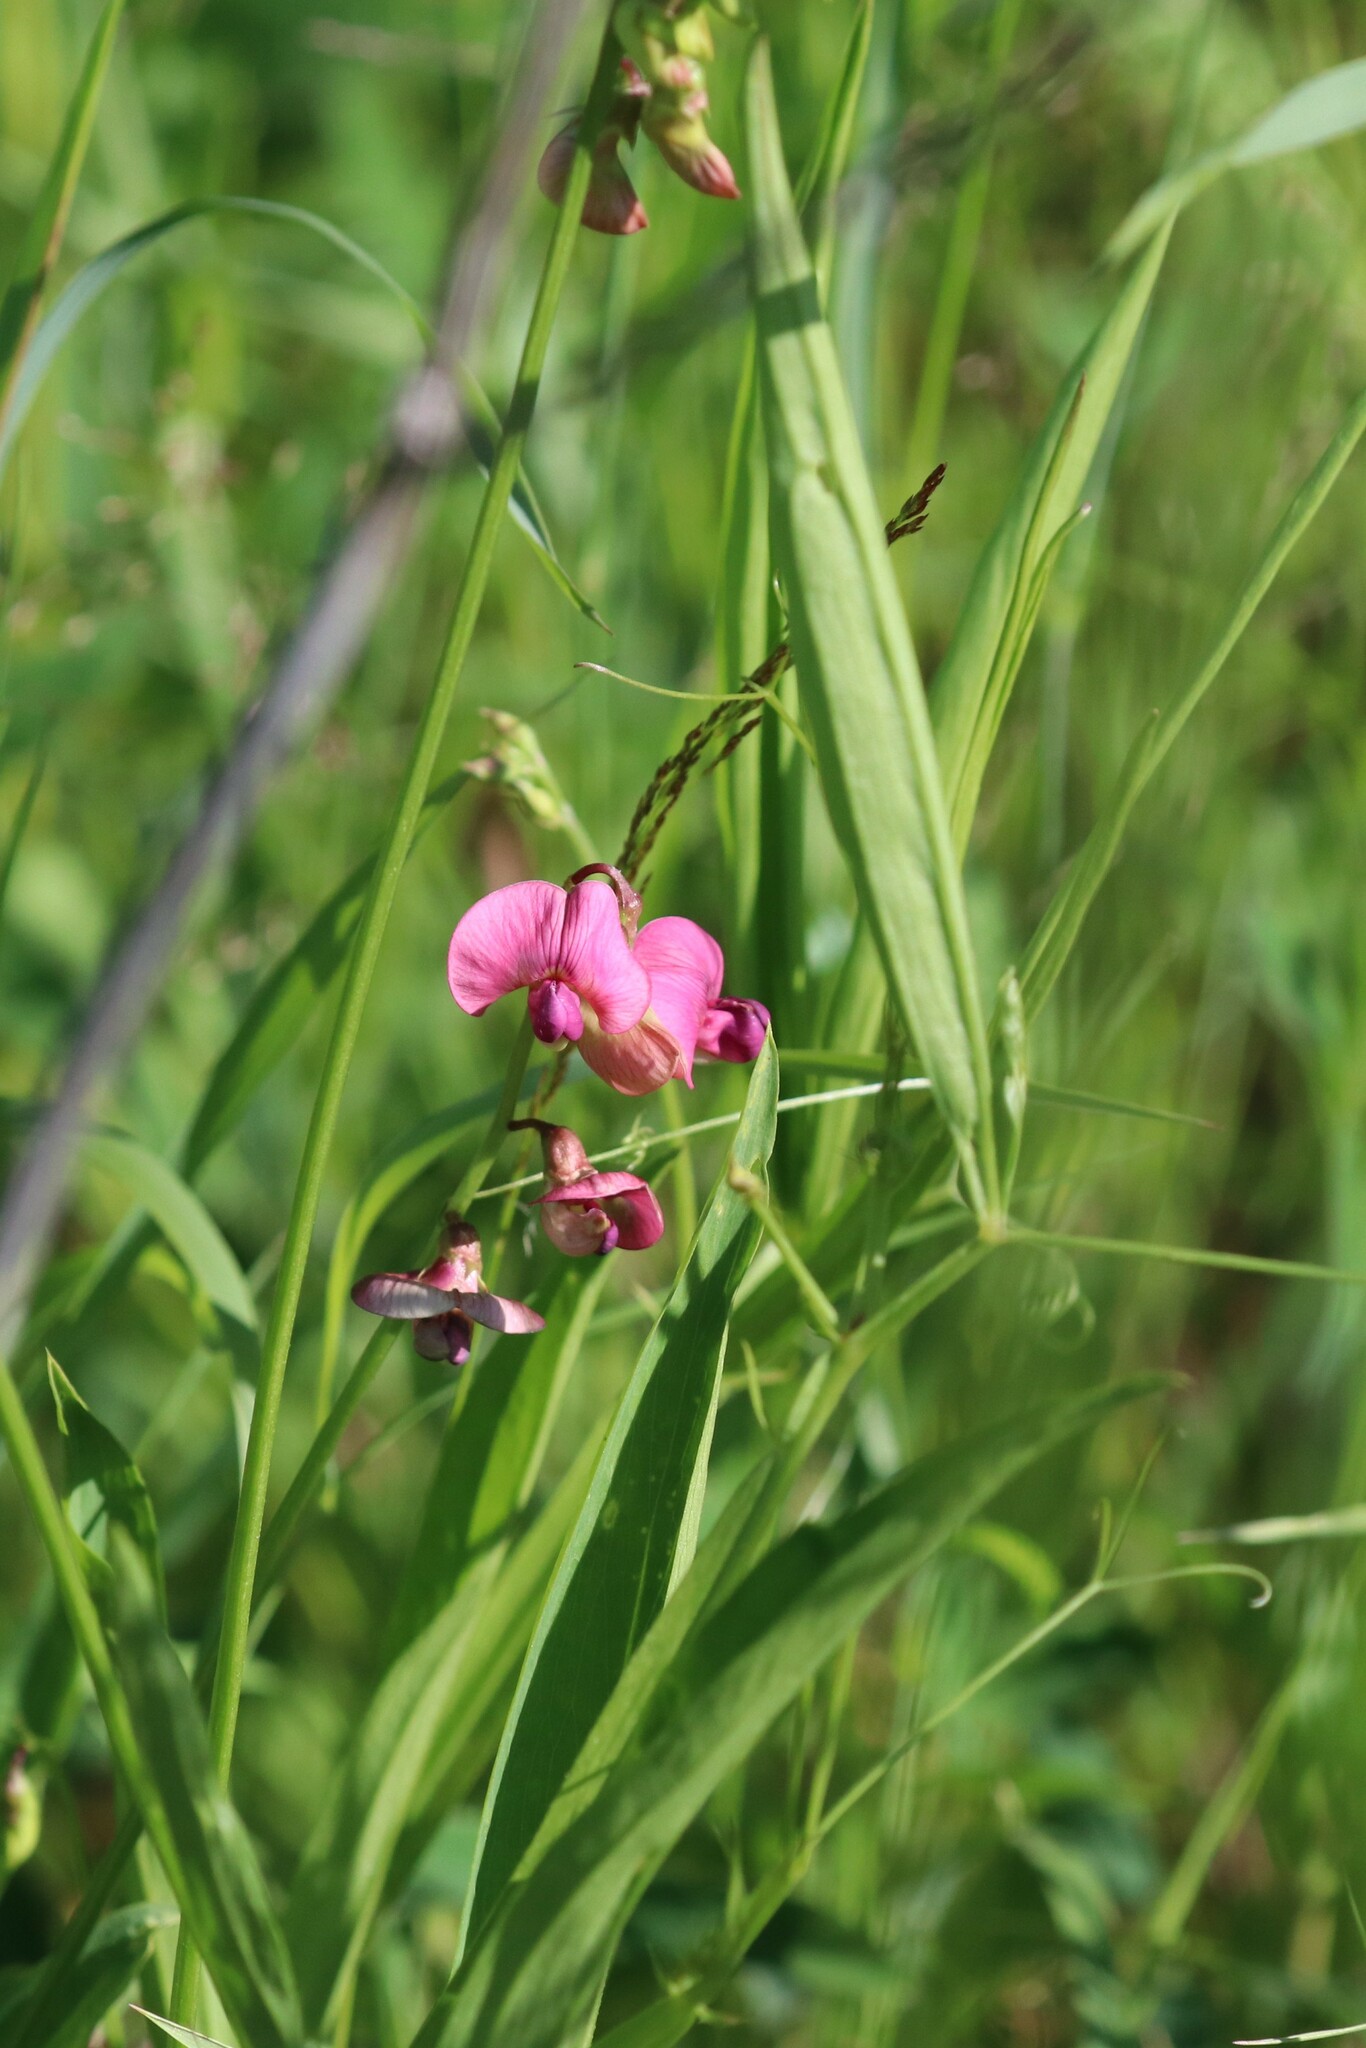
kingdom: Plantae
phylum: Tracheophyta
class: Magnoliopsida
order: Fabales
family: Fabaceae
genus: Lathyrus
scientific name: Lathyrus sylvestris
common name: Flat pea
